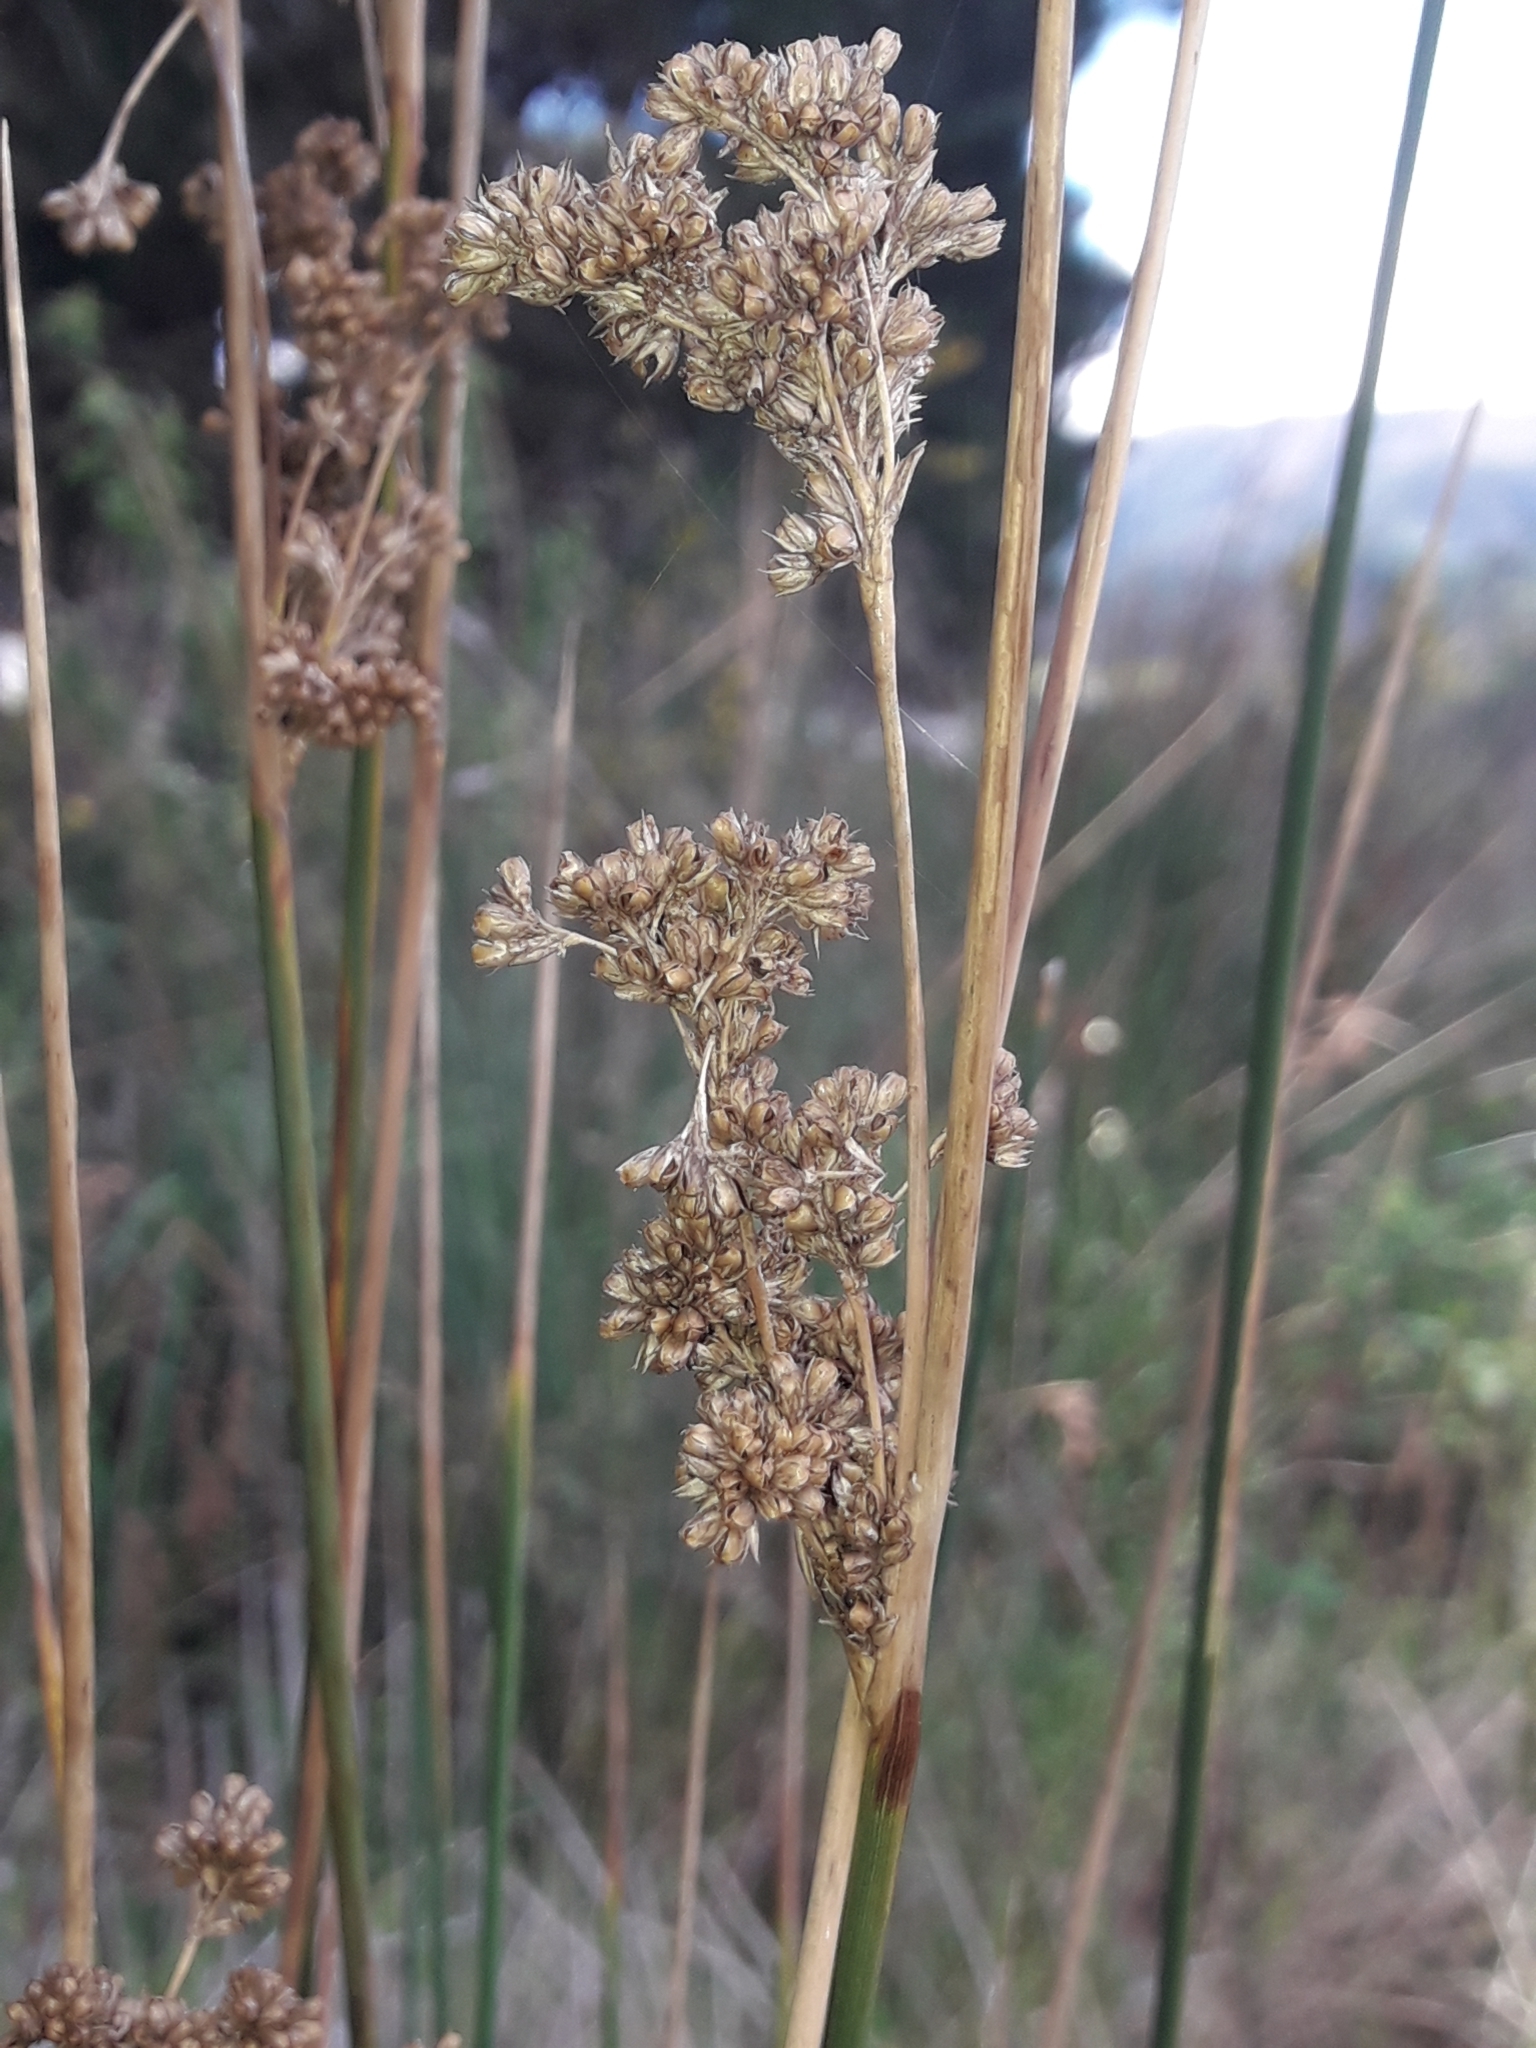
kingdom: Plantae
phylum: Tracheophyta
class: Liliopsida
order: Poales
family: Juncaceae
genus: Juncus
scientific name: Juncus australis
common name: Austral rush
